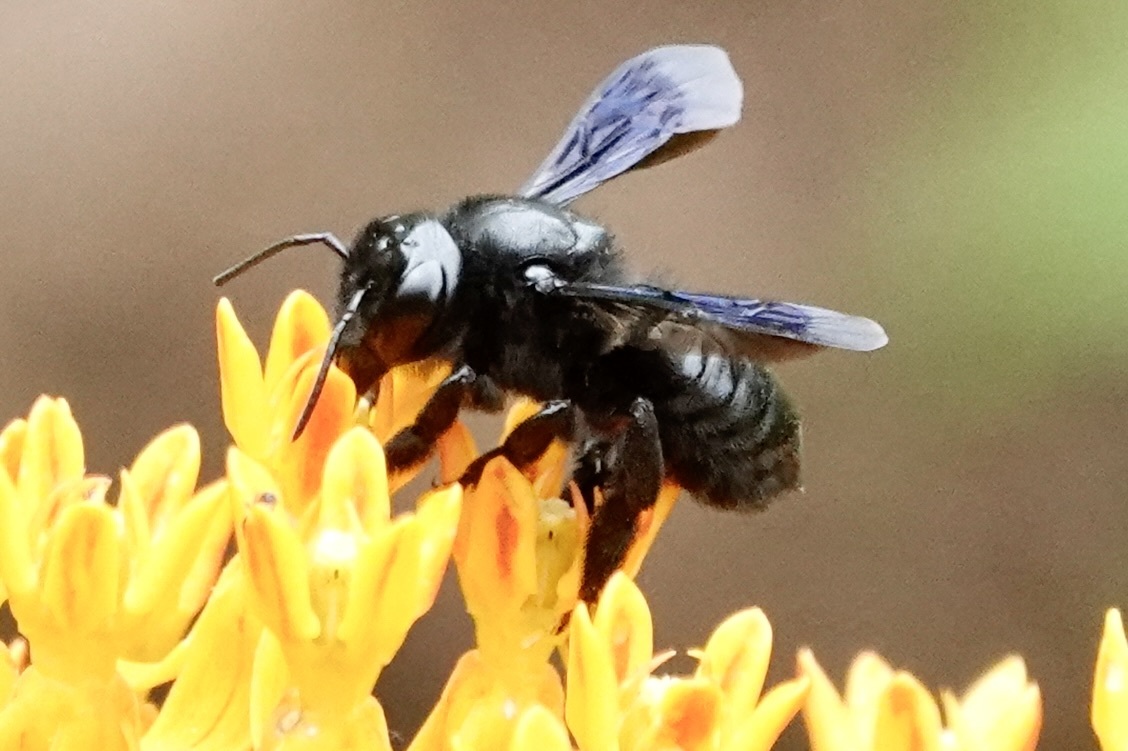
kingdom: Animalia
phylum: Arthropoda
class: Insecta
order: Hymenoptera
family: Megachilidae
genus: Megachile
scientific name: Megachile xylocopoides
